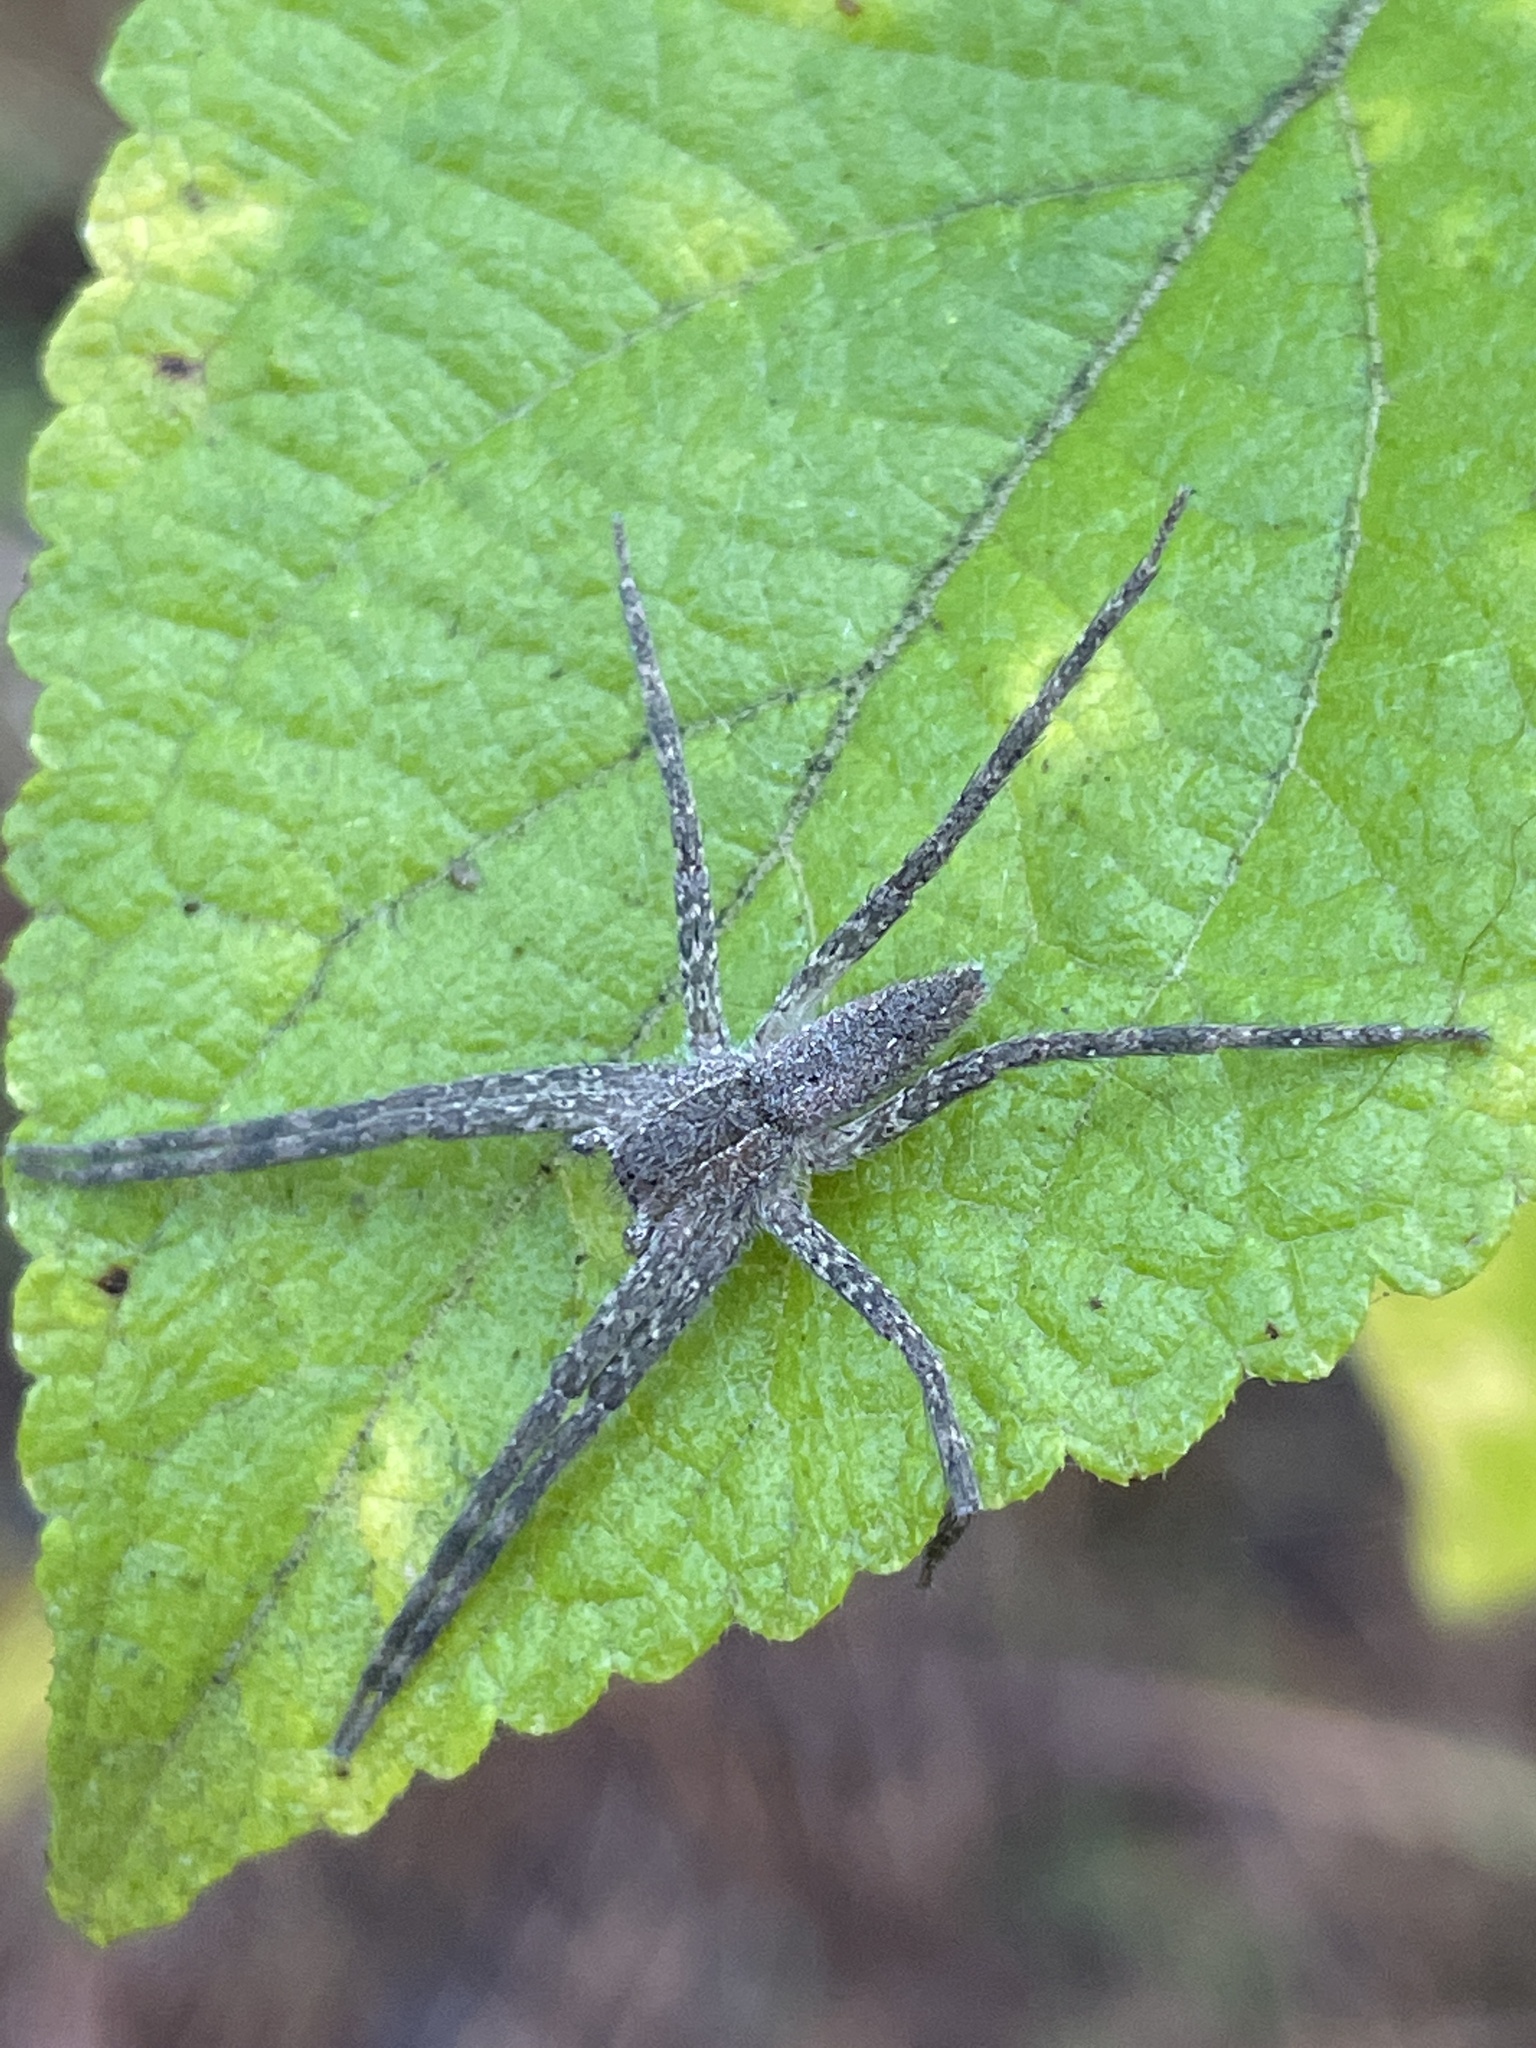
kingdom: Animalia
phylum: Arthropoda
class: Arachnida
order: Araneae
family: Pisauridae
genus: Pisaurina
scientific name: Pisaurina mira
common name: American nursery web spider
